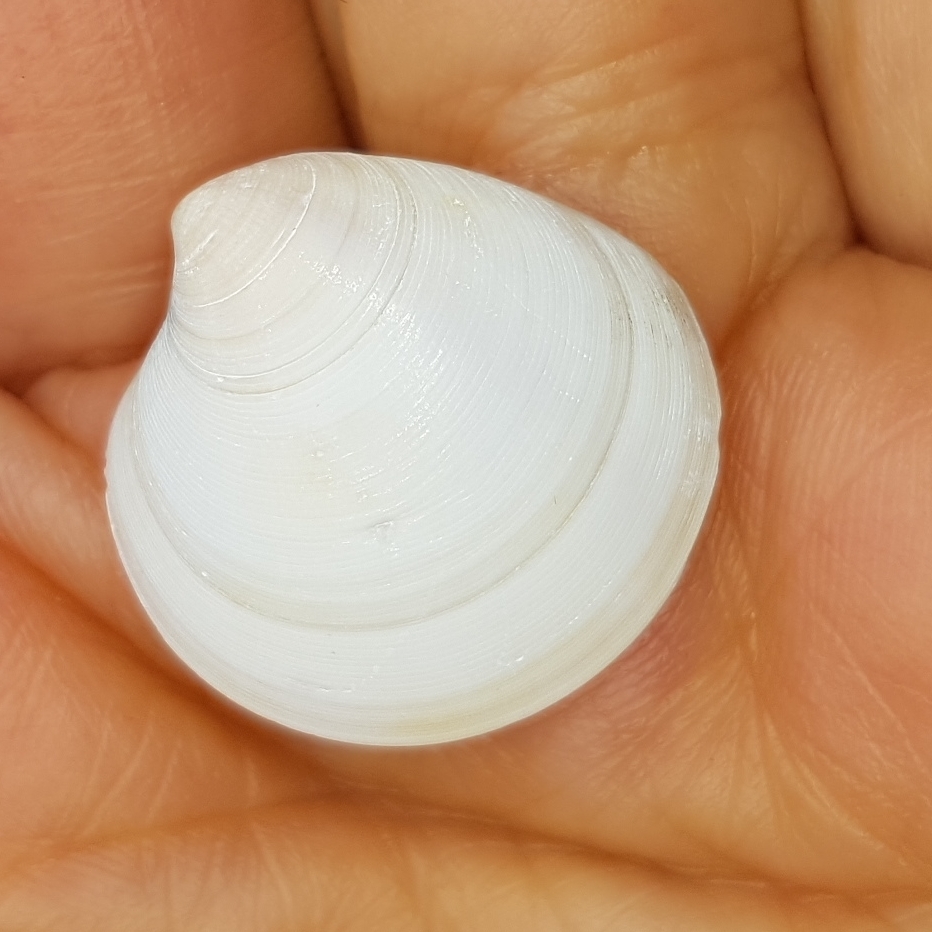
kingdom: Animalia
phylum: Mollusca
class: Bivalvia
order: Venerida
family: Veneridae
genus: Dosinia
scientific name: Dosinia lupinus
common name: Smooth artemis
